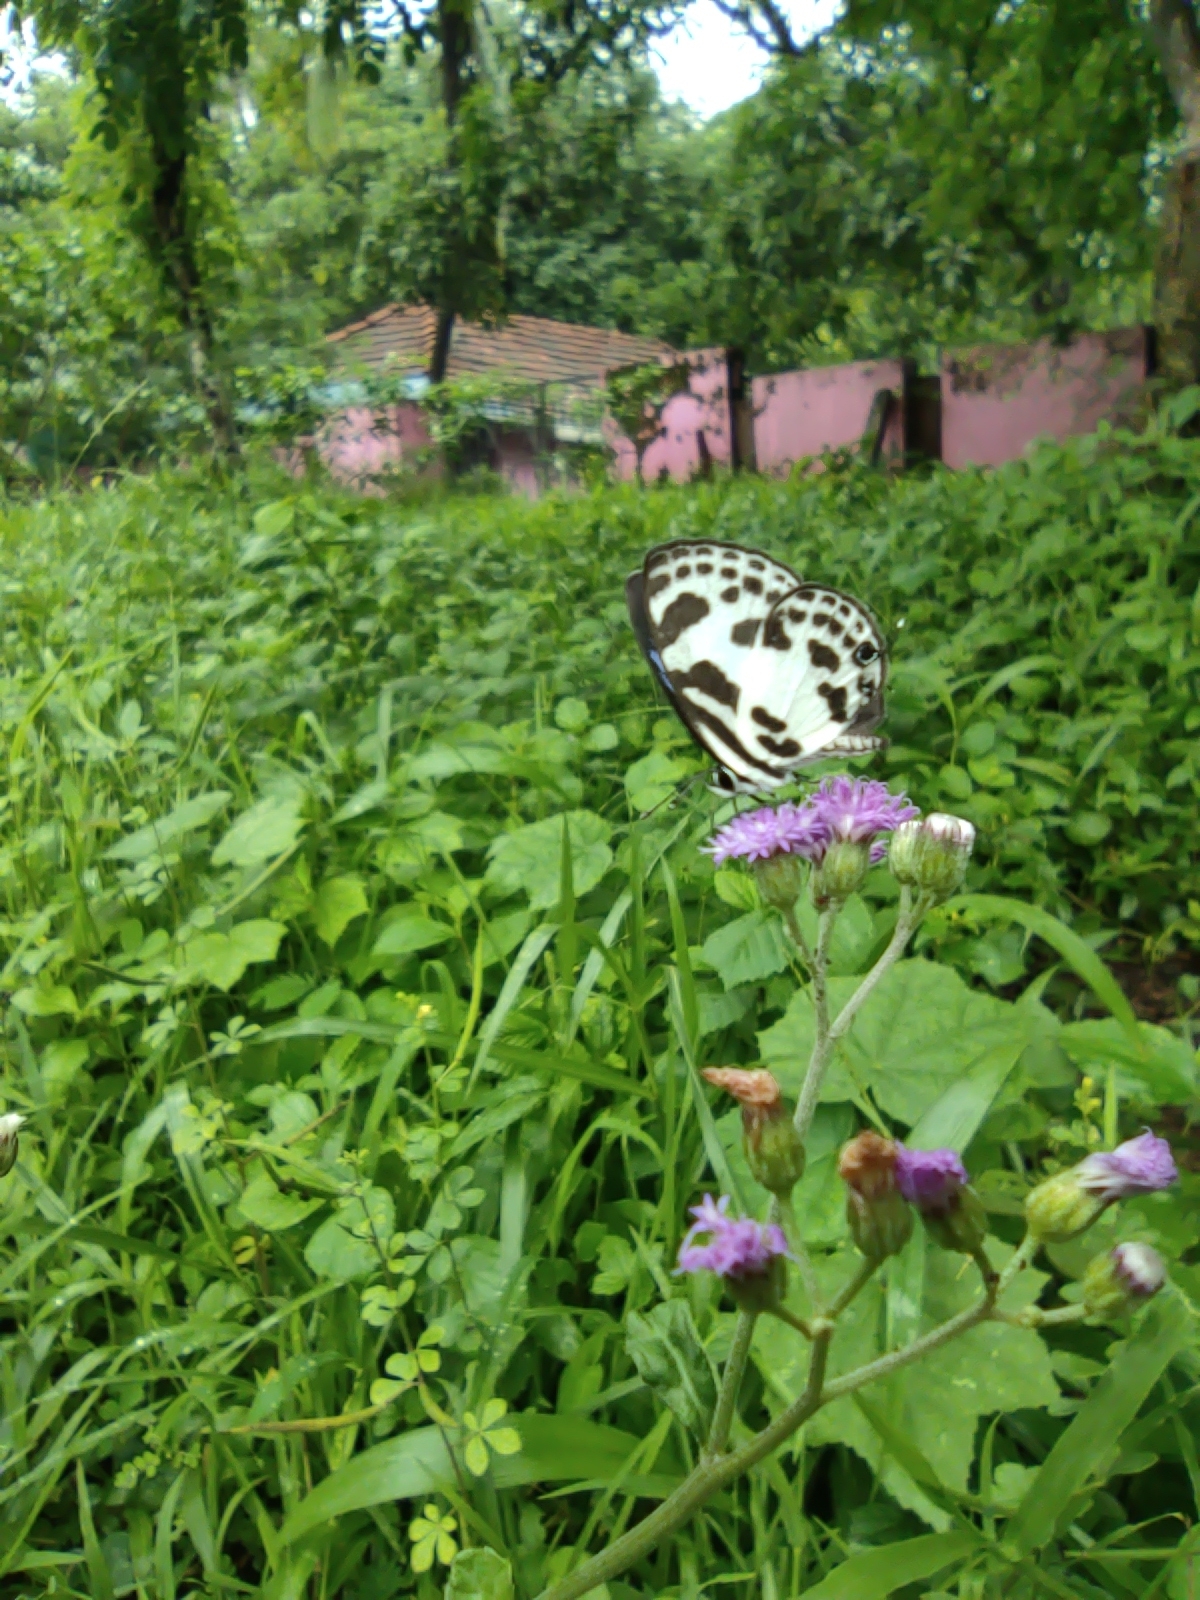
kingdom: Animalia
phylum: Arthropoda
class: Insecta
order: Lepidoptera
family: Lycaenidae
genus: Discolampa
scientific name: Discolampa ethion
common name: Banded blue pierrot
